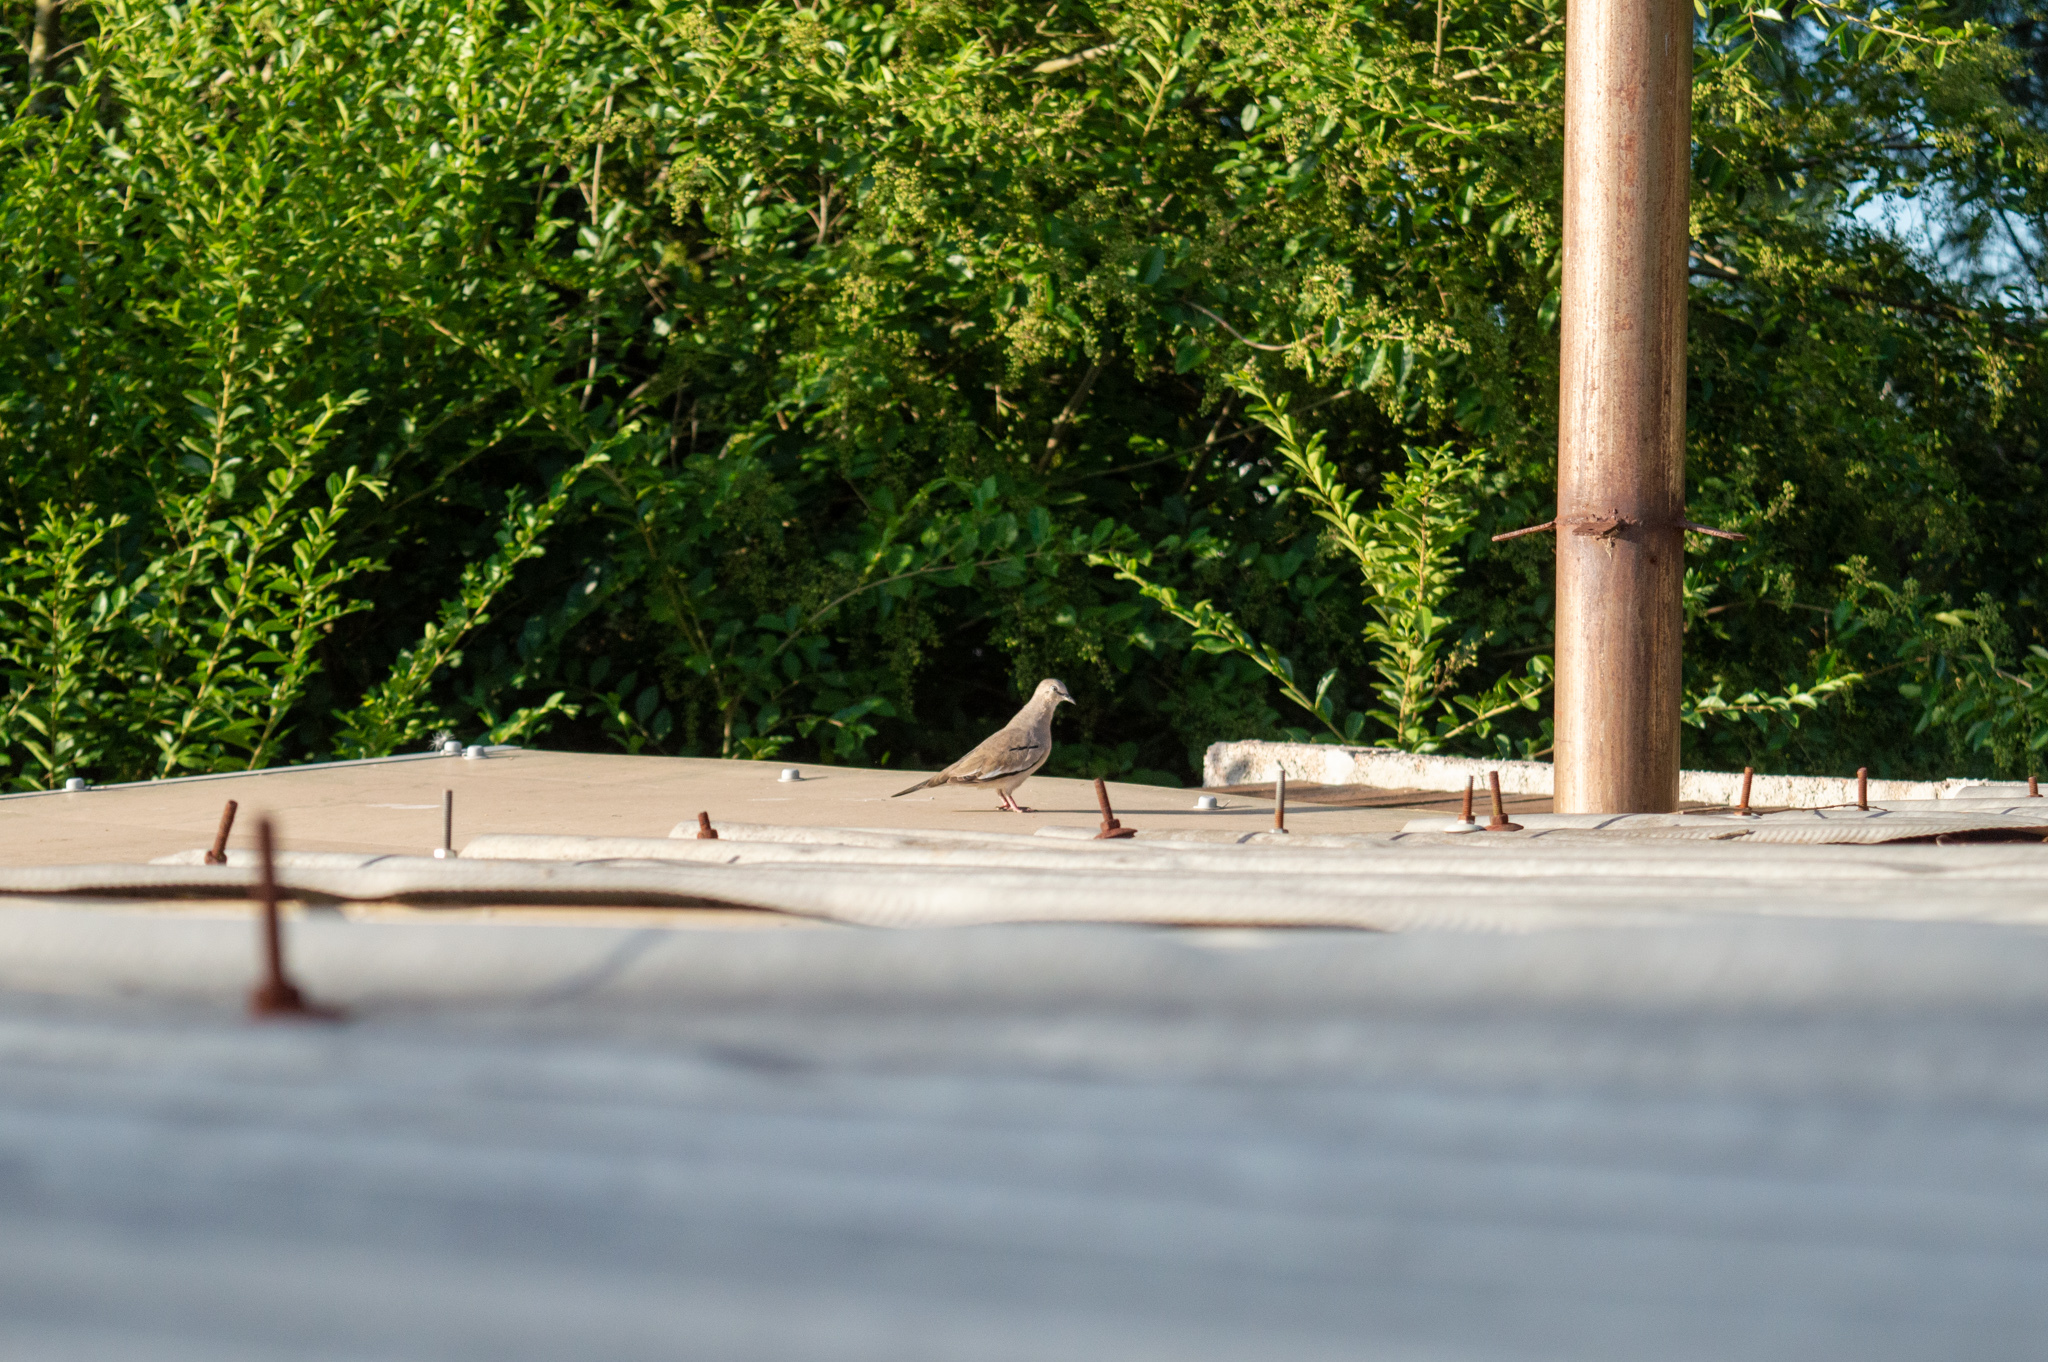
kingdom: Animalia
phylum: Chordata
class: Aves
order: Columbiformes
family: Columbidae
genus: Columbina
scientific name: Columbina picui
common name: Picui ground dove
